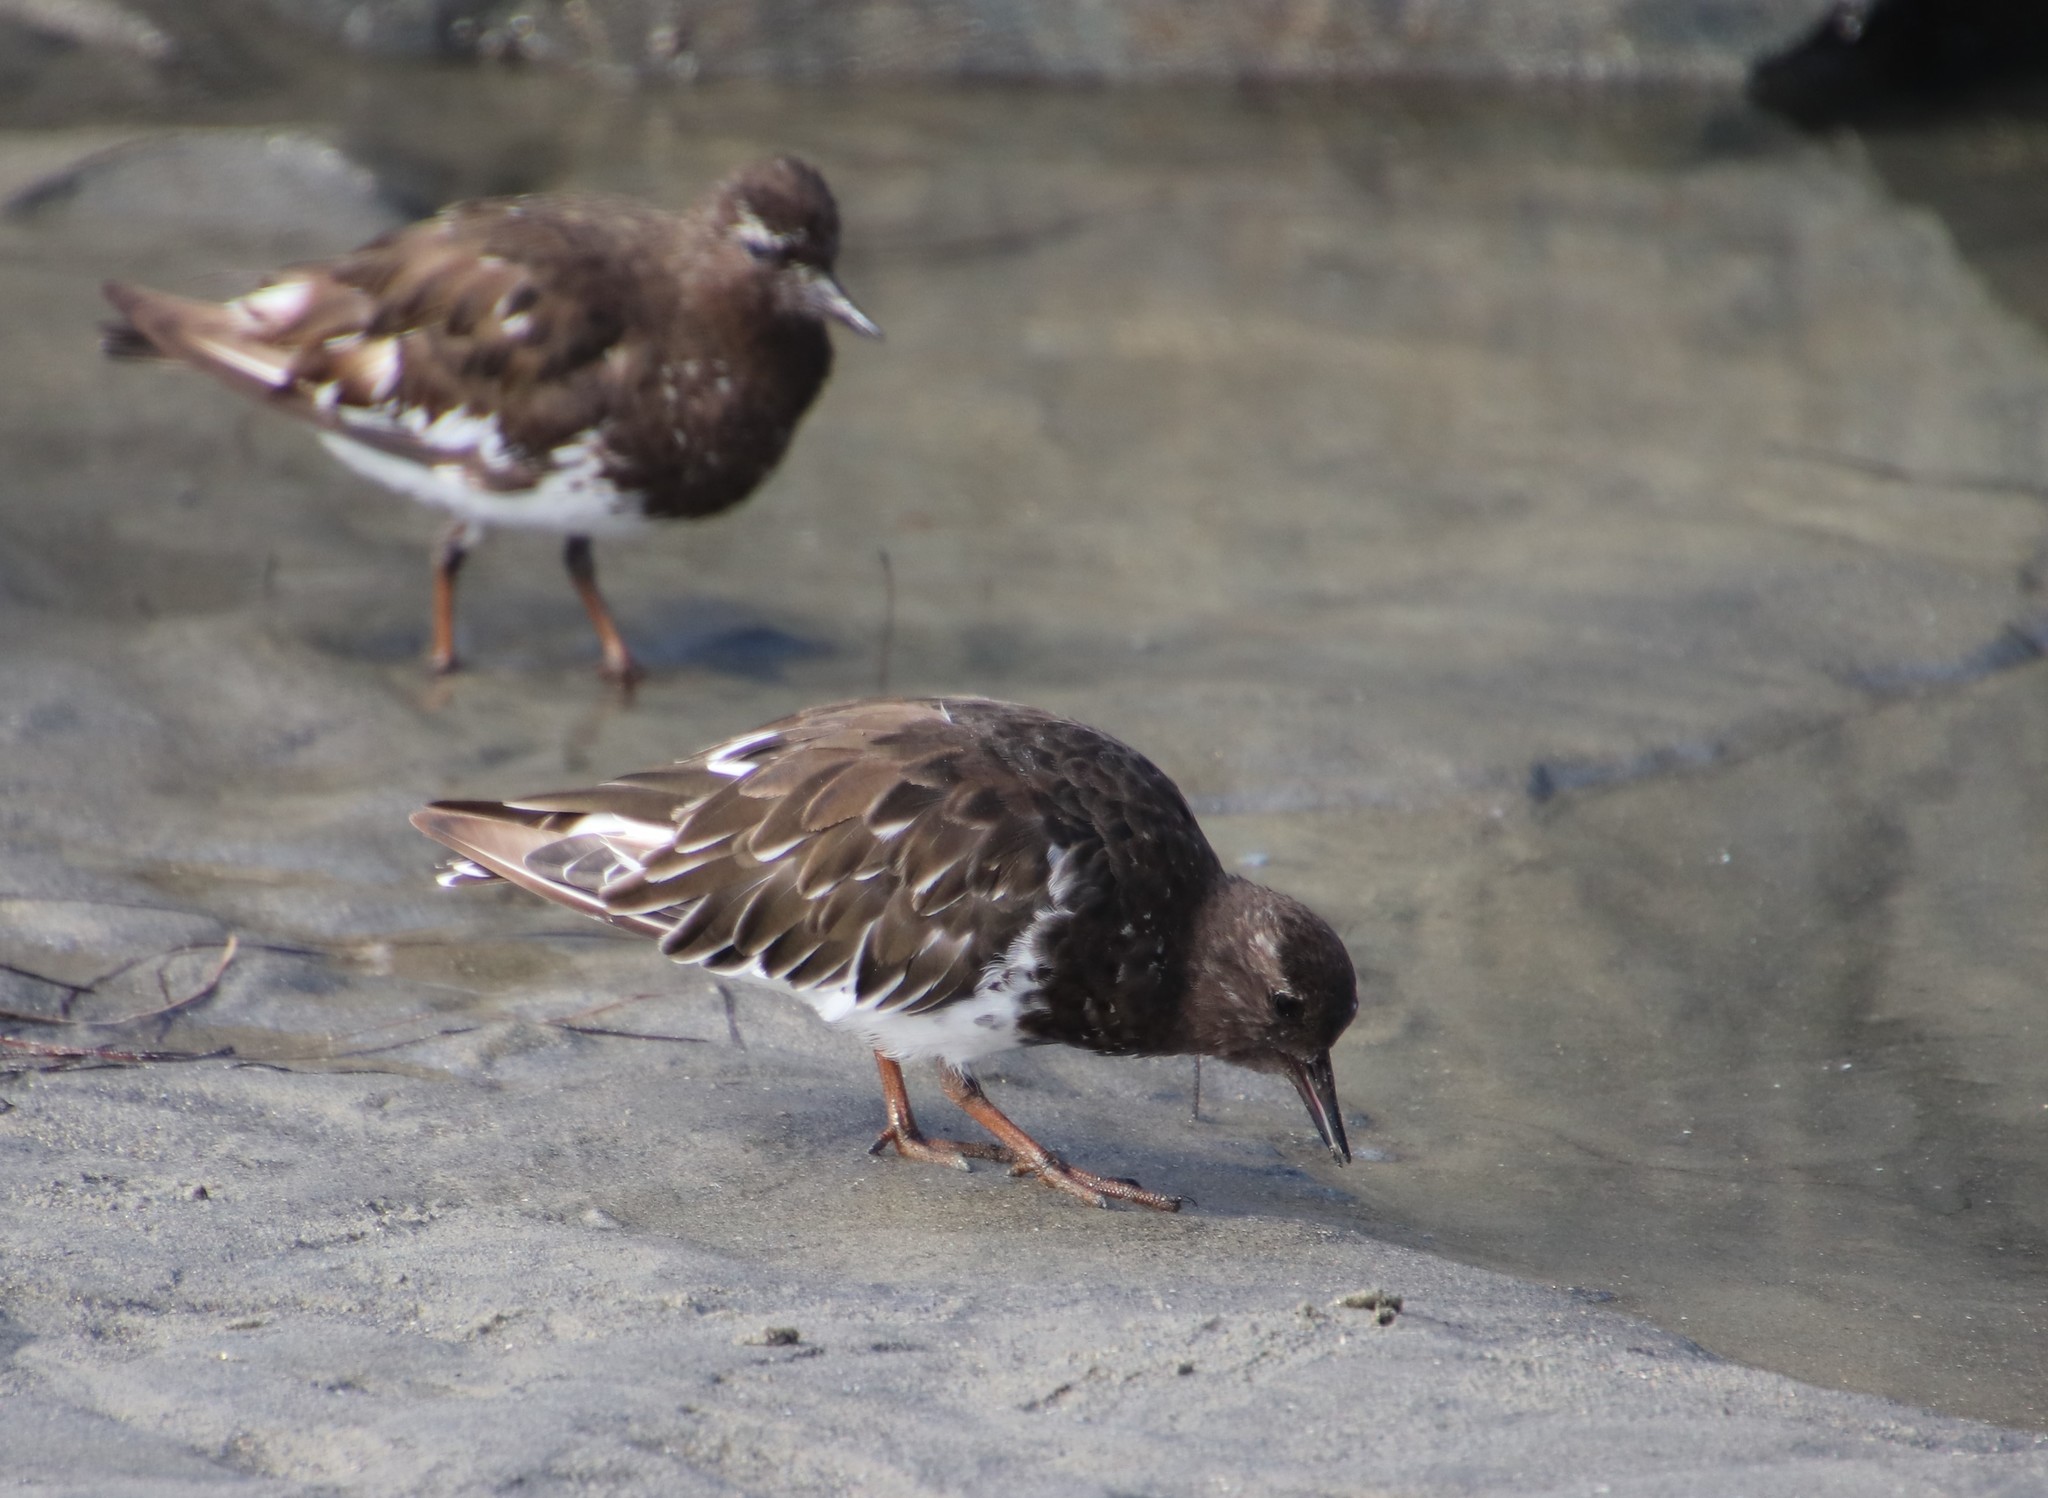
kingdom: Animalia
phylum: Chordata
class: Aves
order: Charadriiformes
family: Scolopacidae
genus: Arenaria
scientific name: Arenaria melanocephala
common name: Black turnstone
